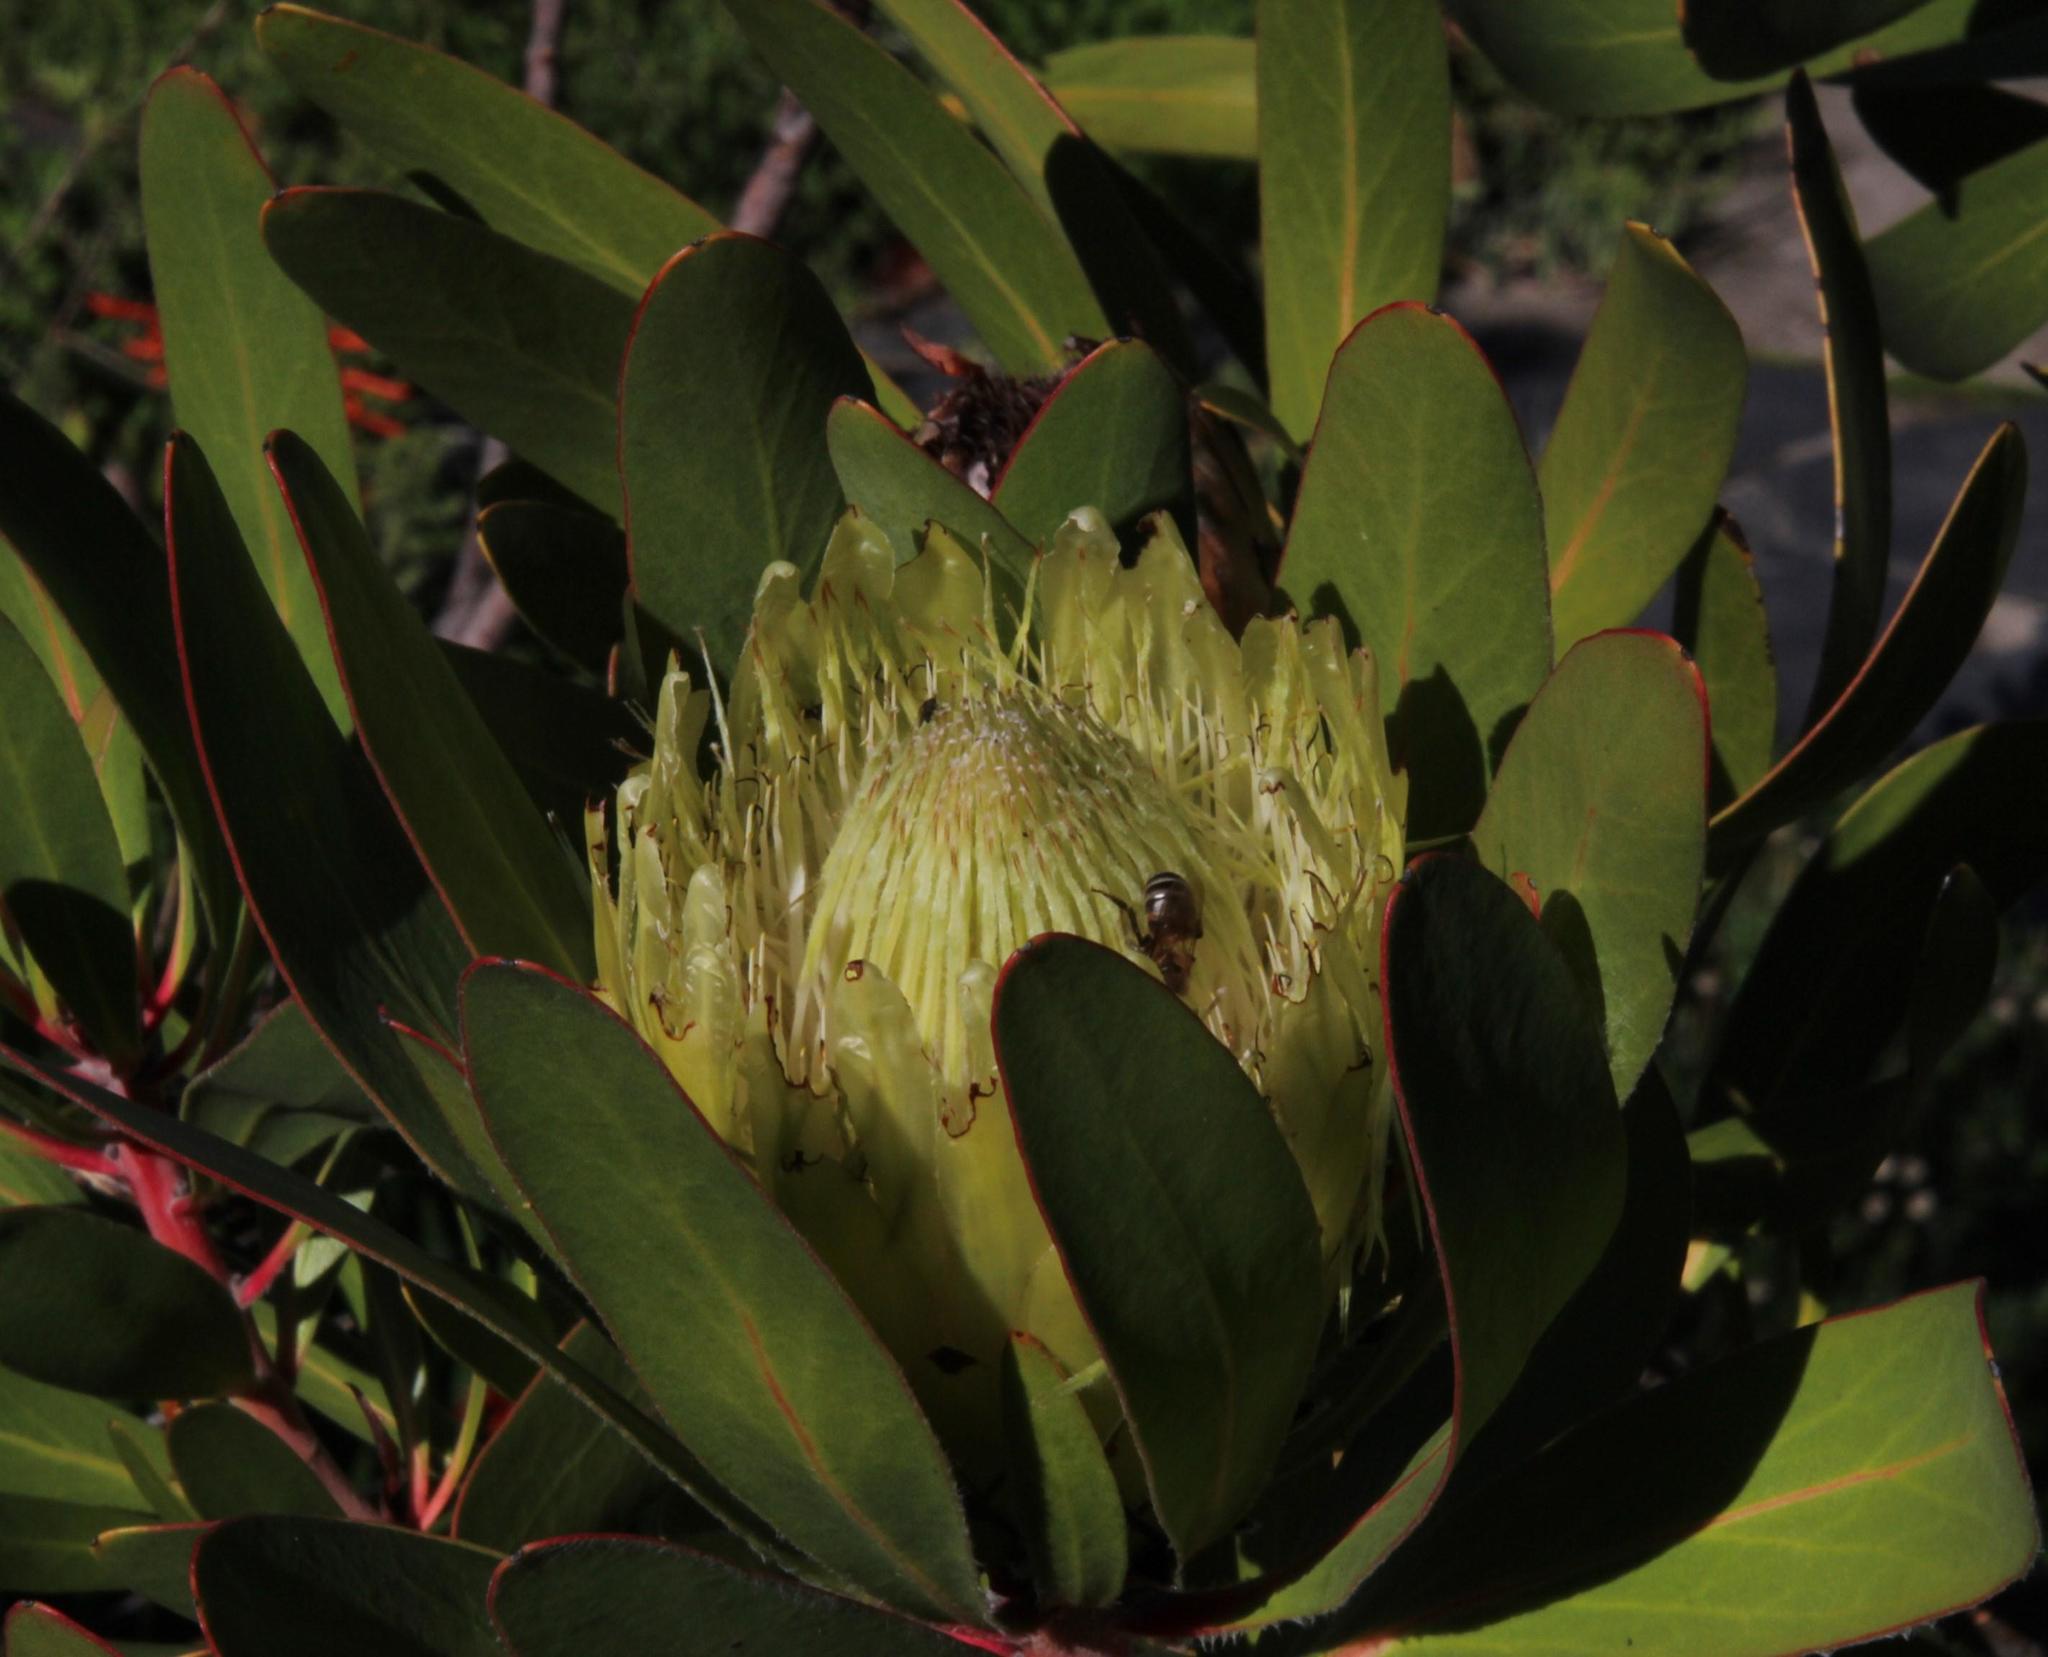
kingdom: Animalia
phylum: Arthropoda
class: Insecta
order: Hymenoptera
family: Apidae
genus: Apis
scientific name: Apis mellifera
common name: Honey bee
